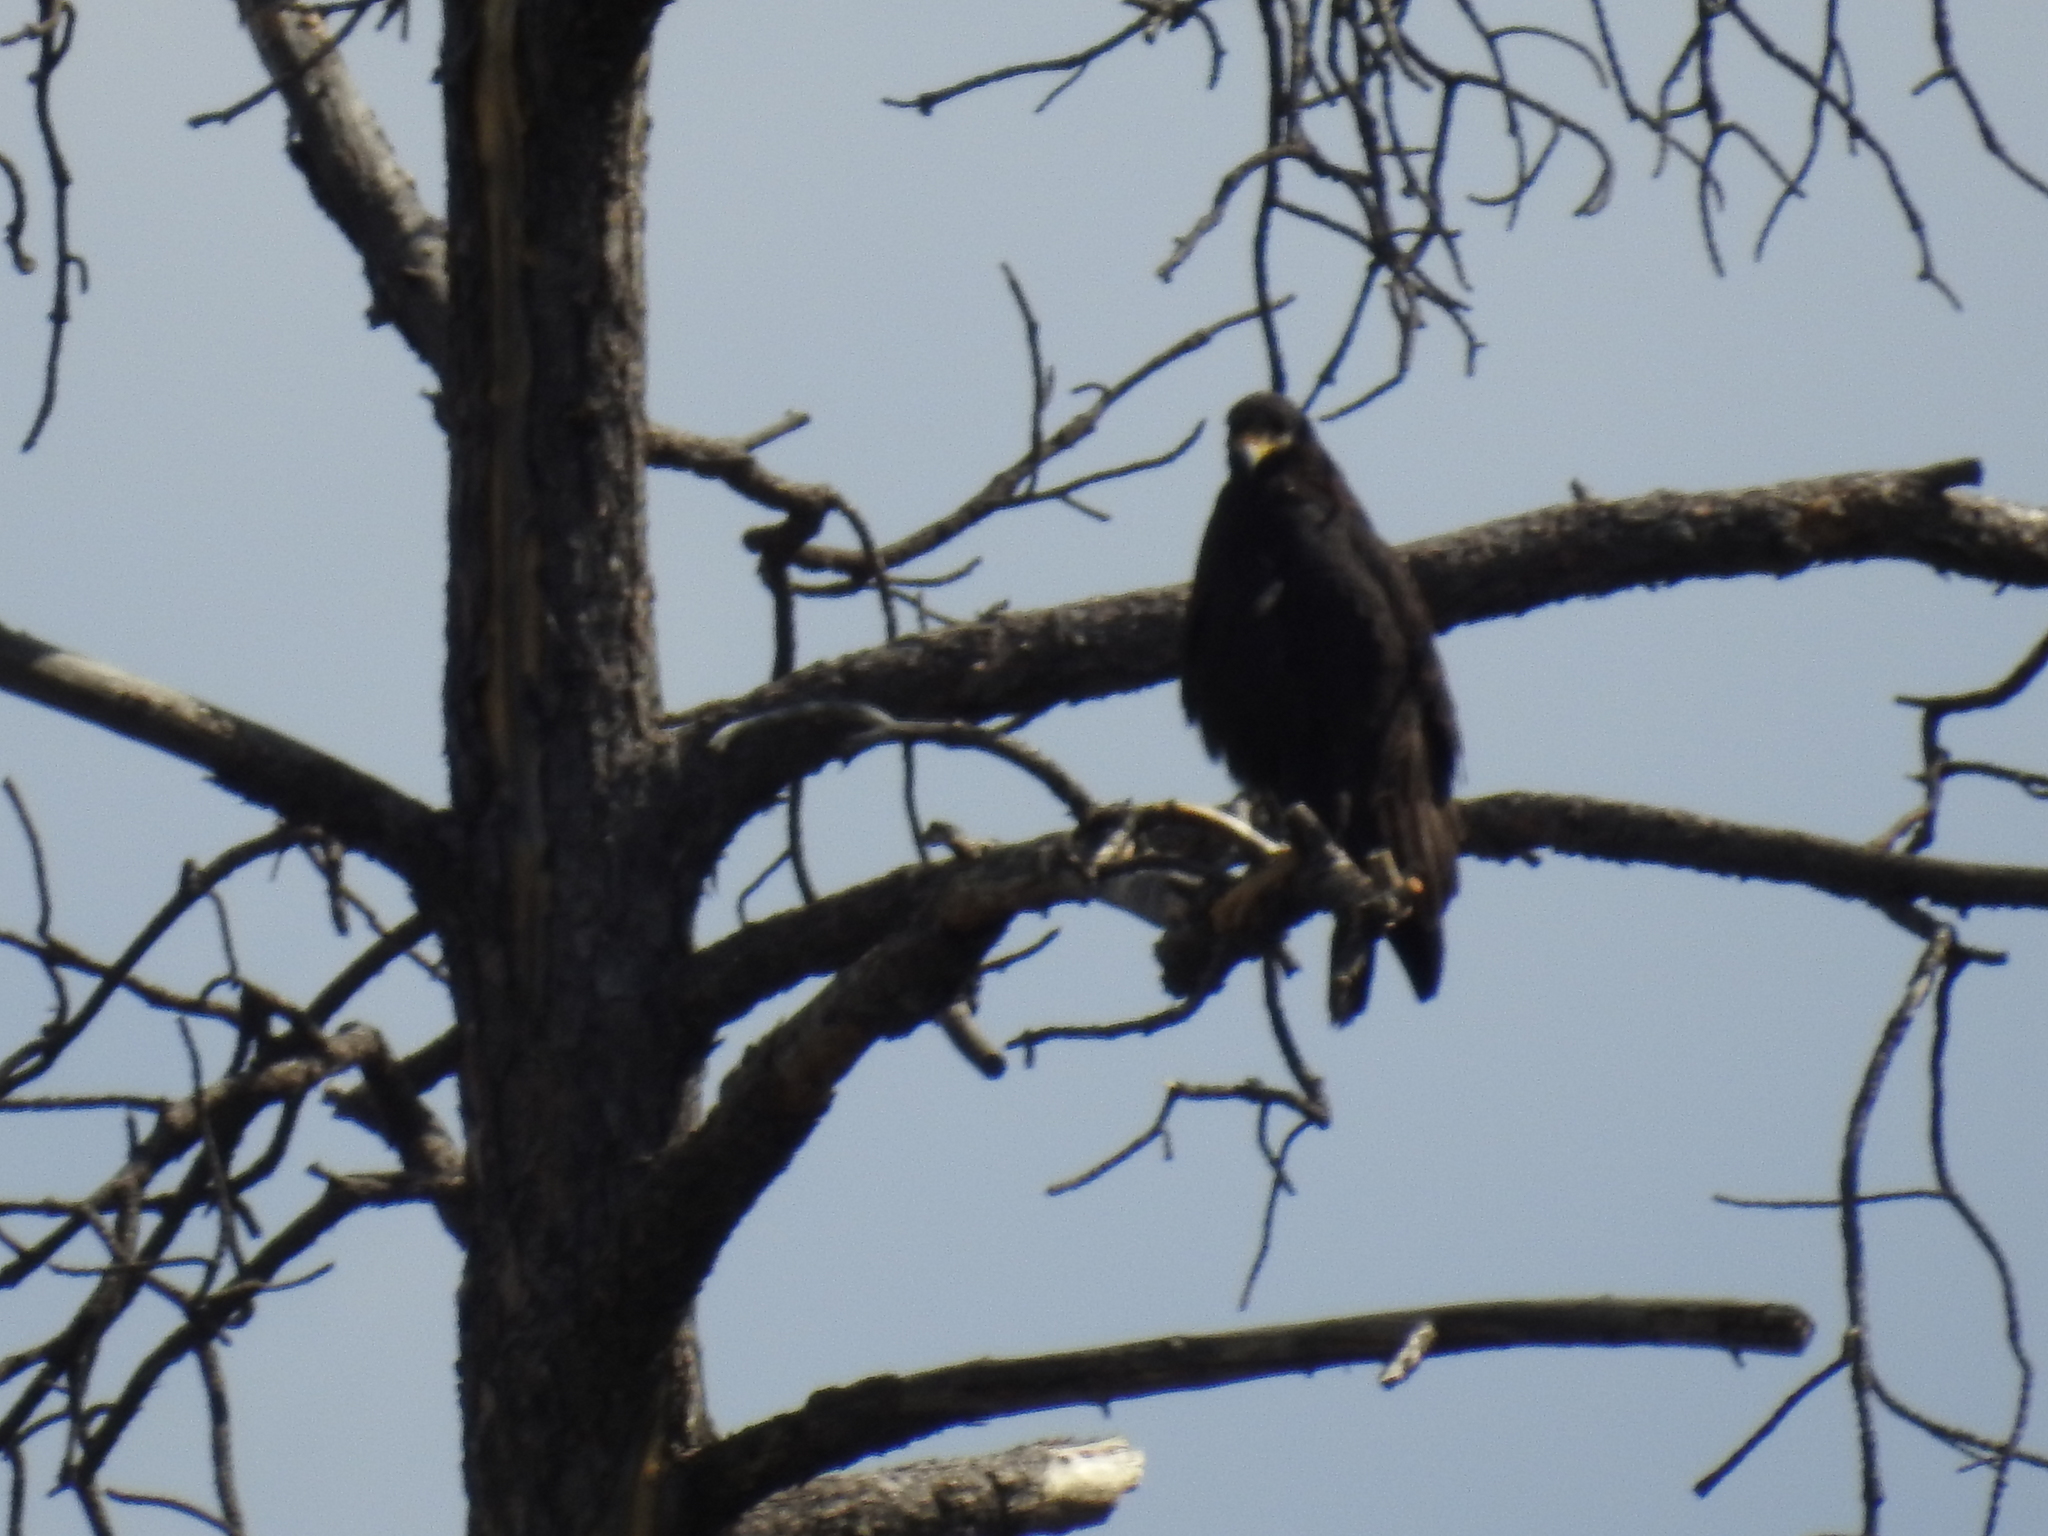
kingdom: Animalia
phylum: Chordata
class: Aves
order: Accipitriformes
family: Accipitridae
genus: Buteogallus
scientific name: Buteogallus anthracinus
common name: Common black hawk
